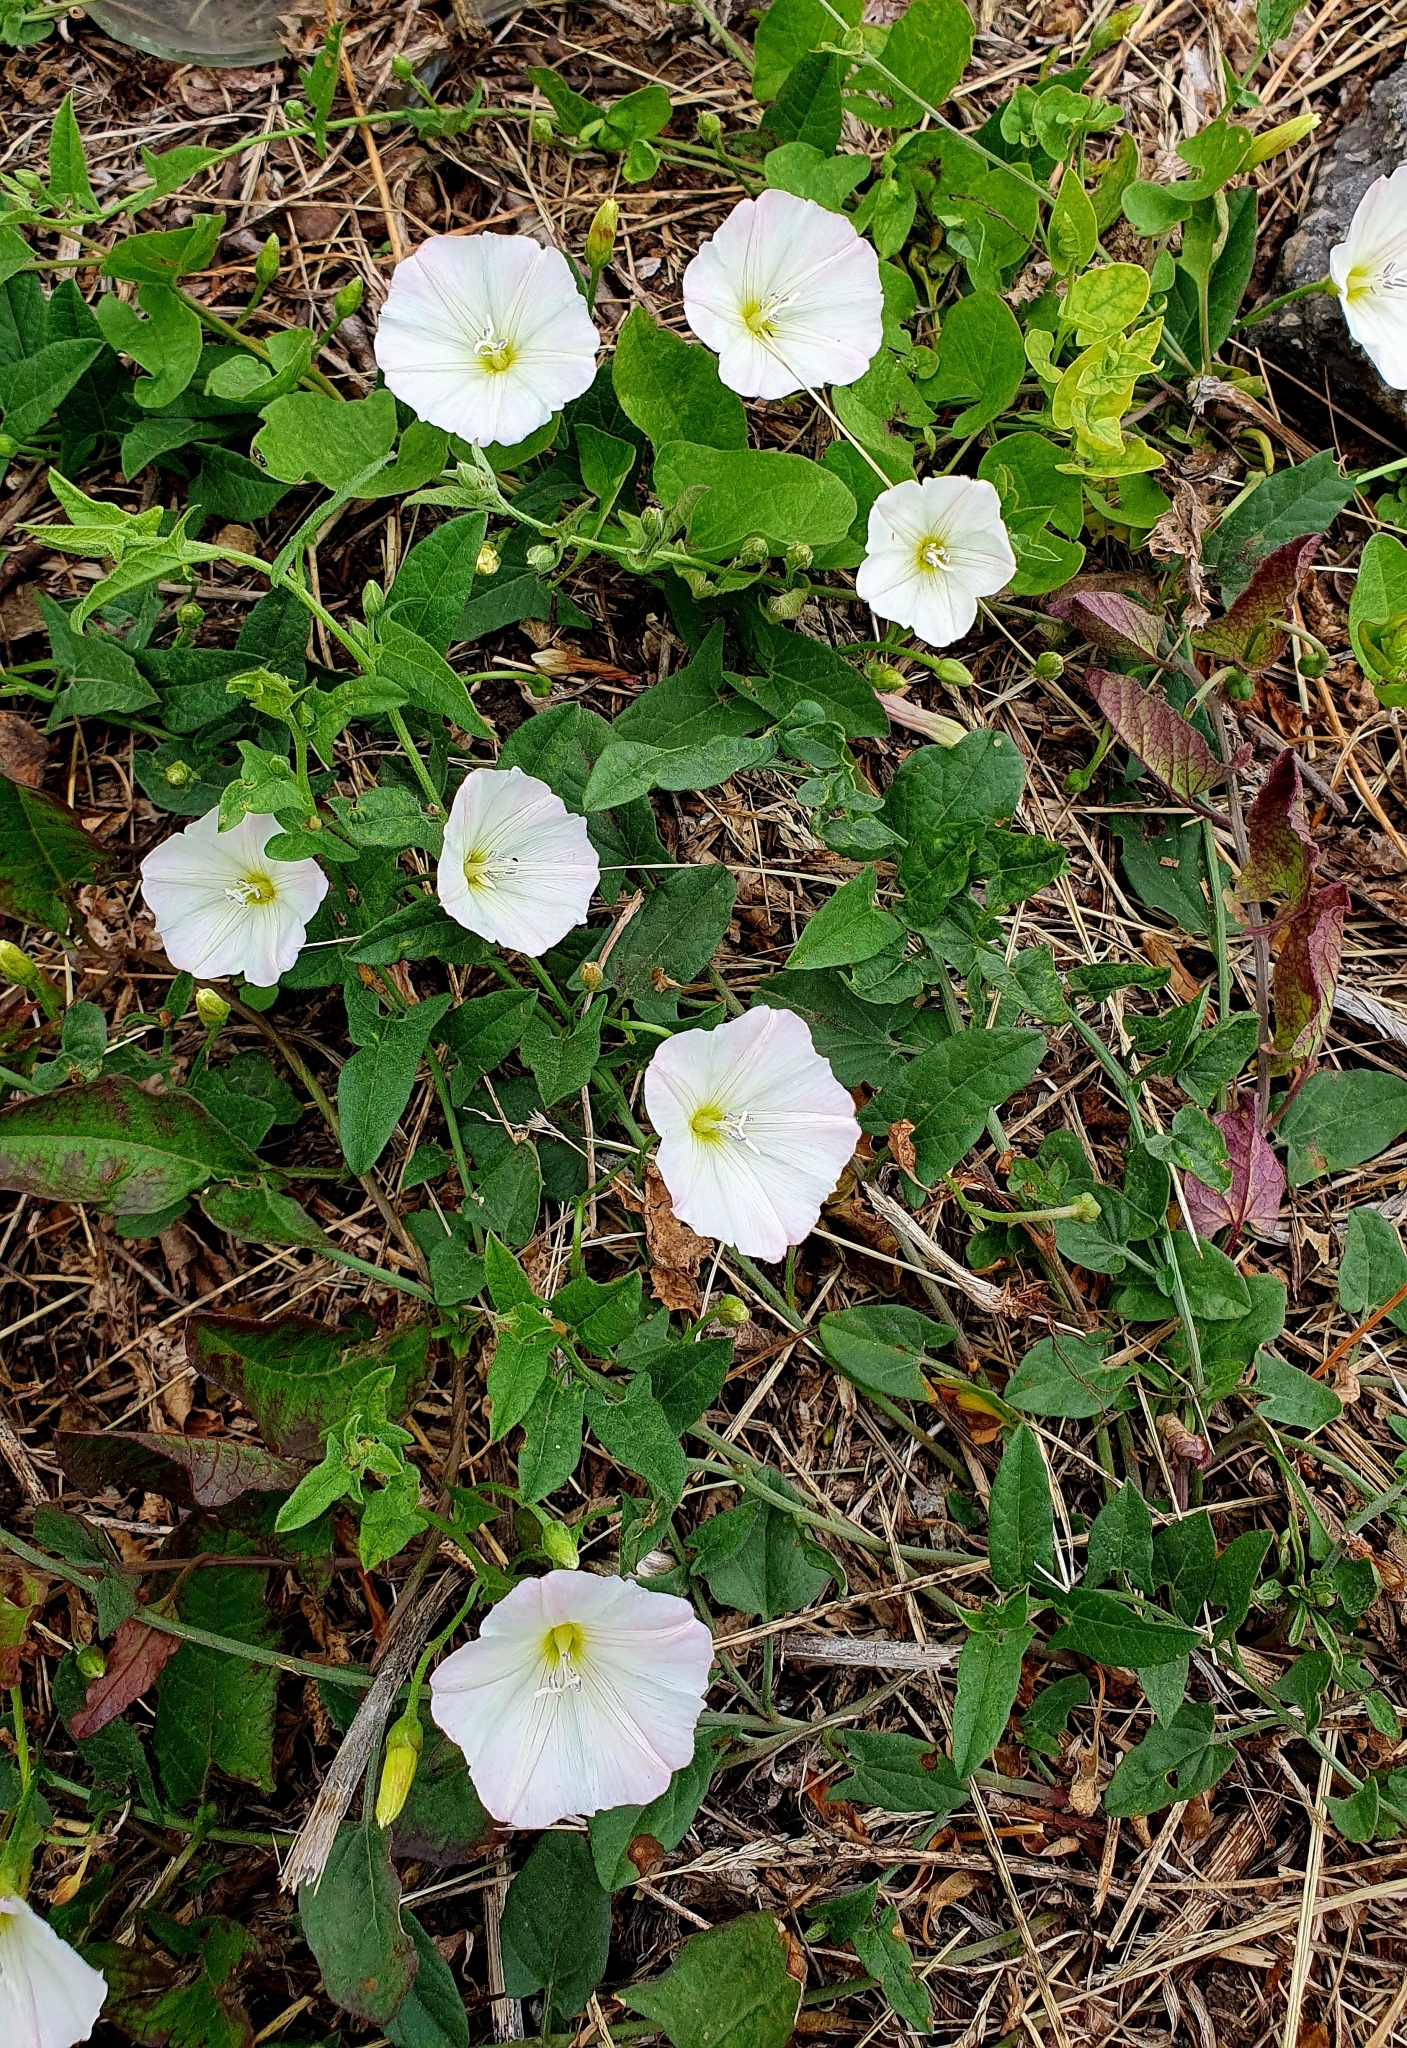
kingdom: Plantae
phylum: Tracheophyta
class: Magnoliopsida
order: Solanales
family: Convolvulaceae
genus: Convolvulus
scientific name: Convolvulus arvensis
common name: Field bindweed
